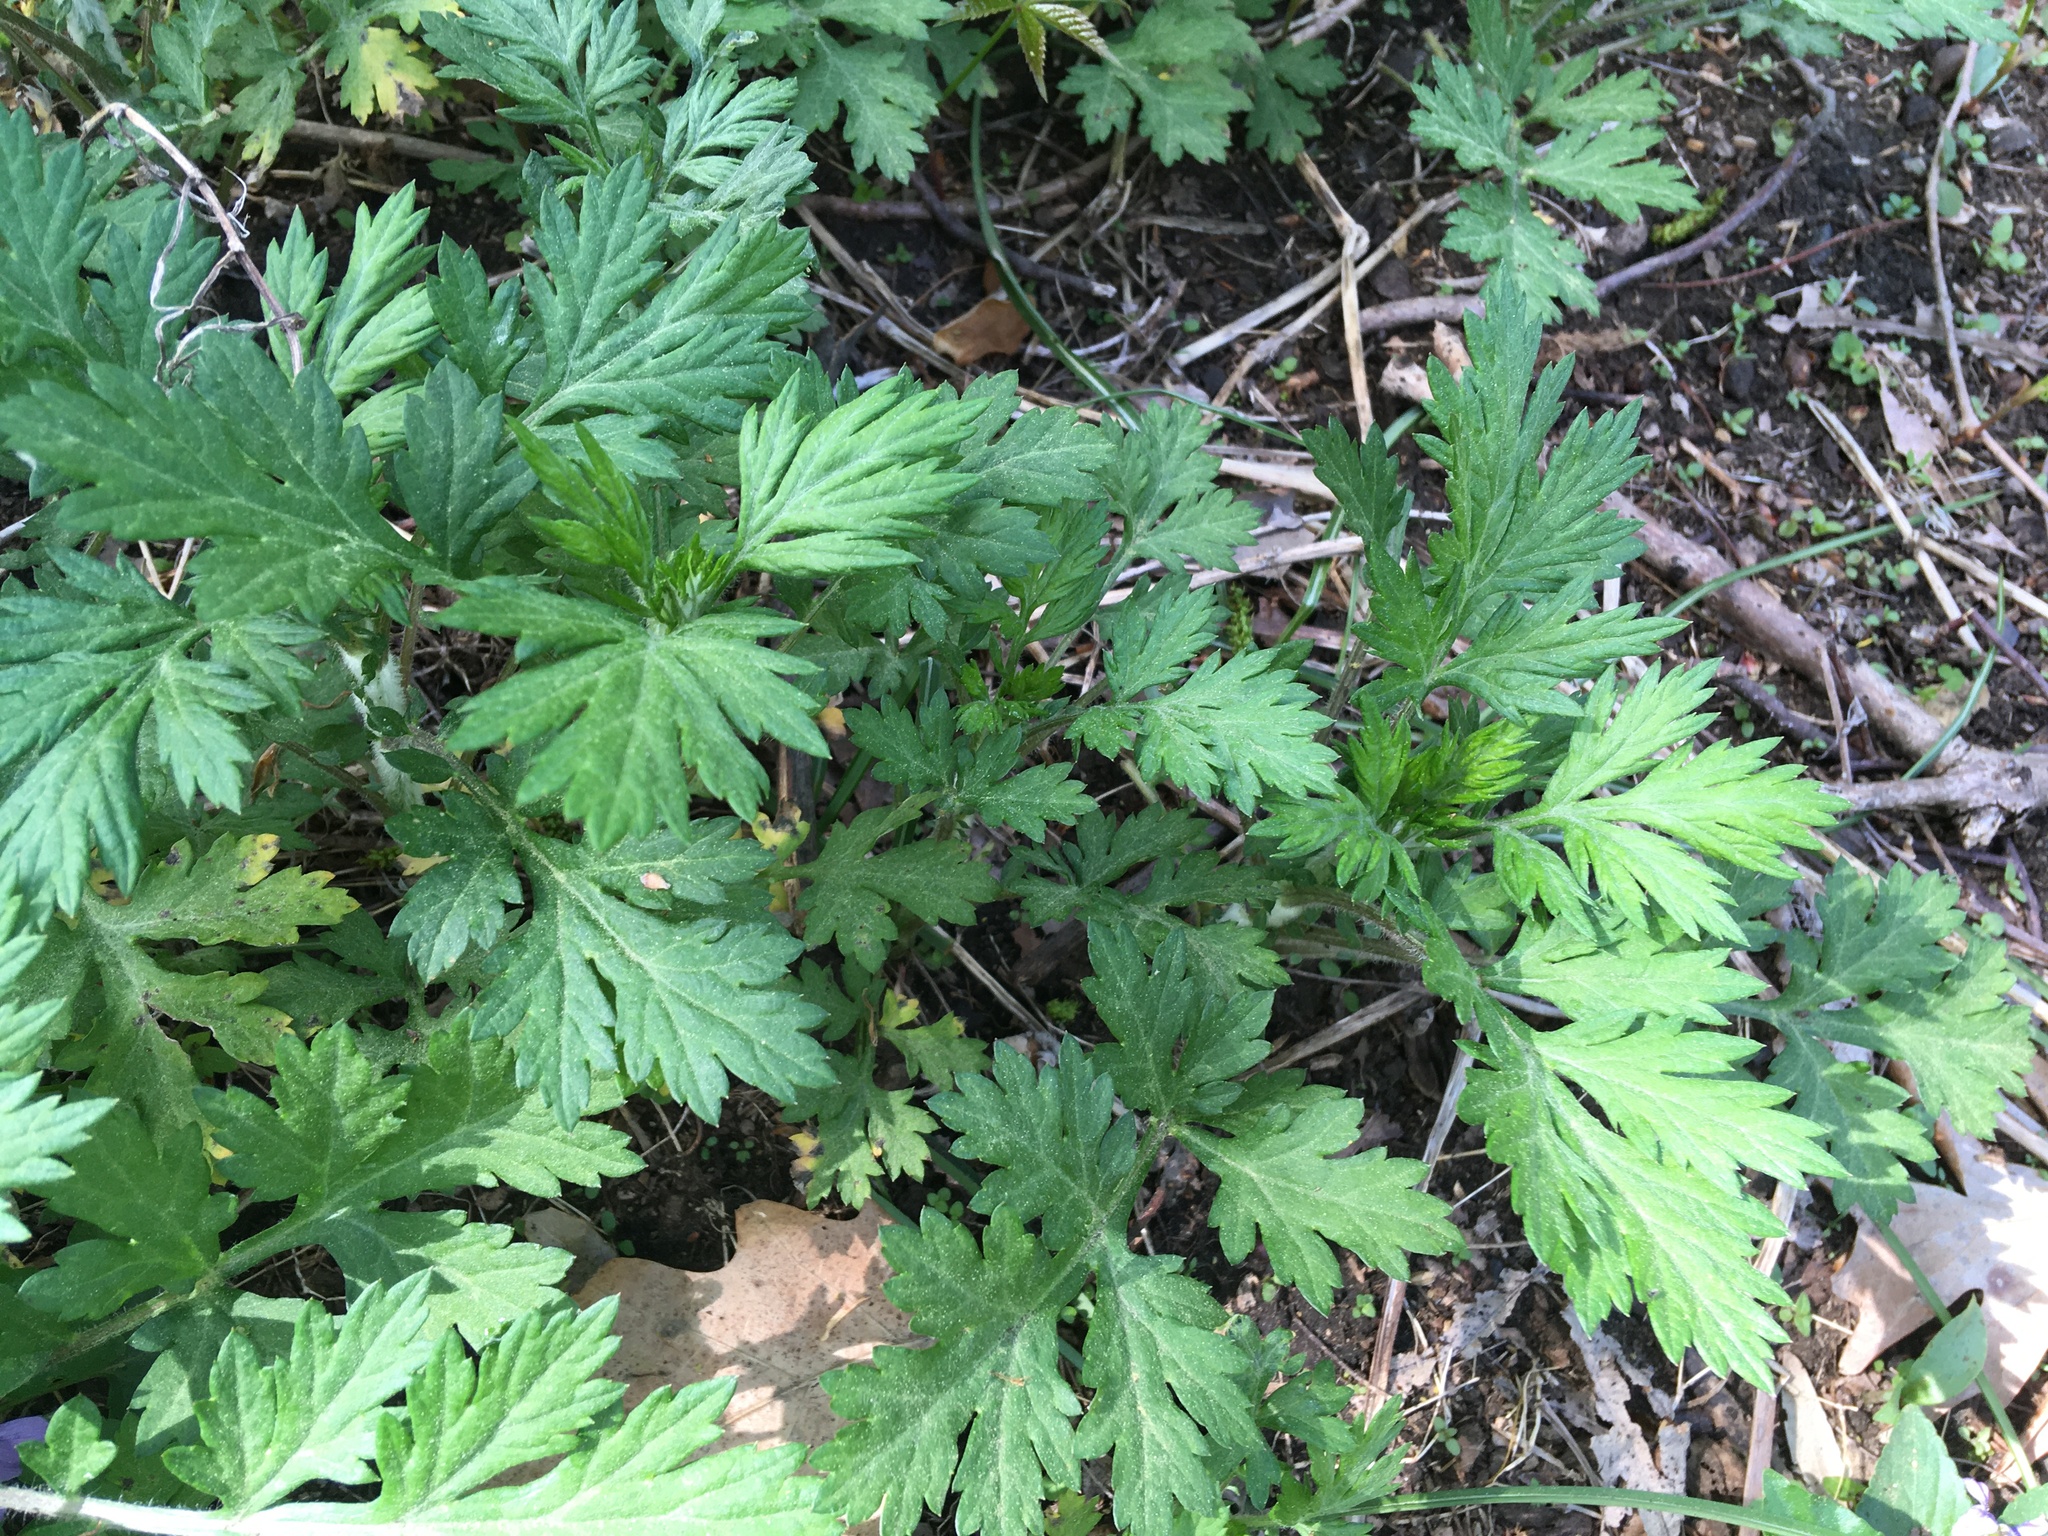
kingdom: Plantae
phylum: Tracheophyta
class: Magnoliopsida
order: Asterales
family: Asteraceae
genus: Artemisia
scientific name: Artemisia vulgaris
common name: Mugwort
